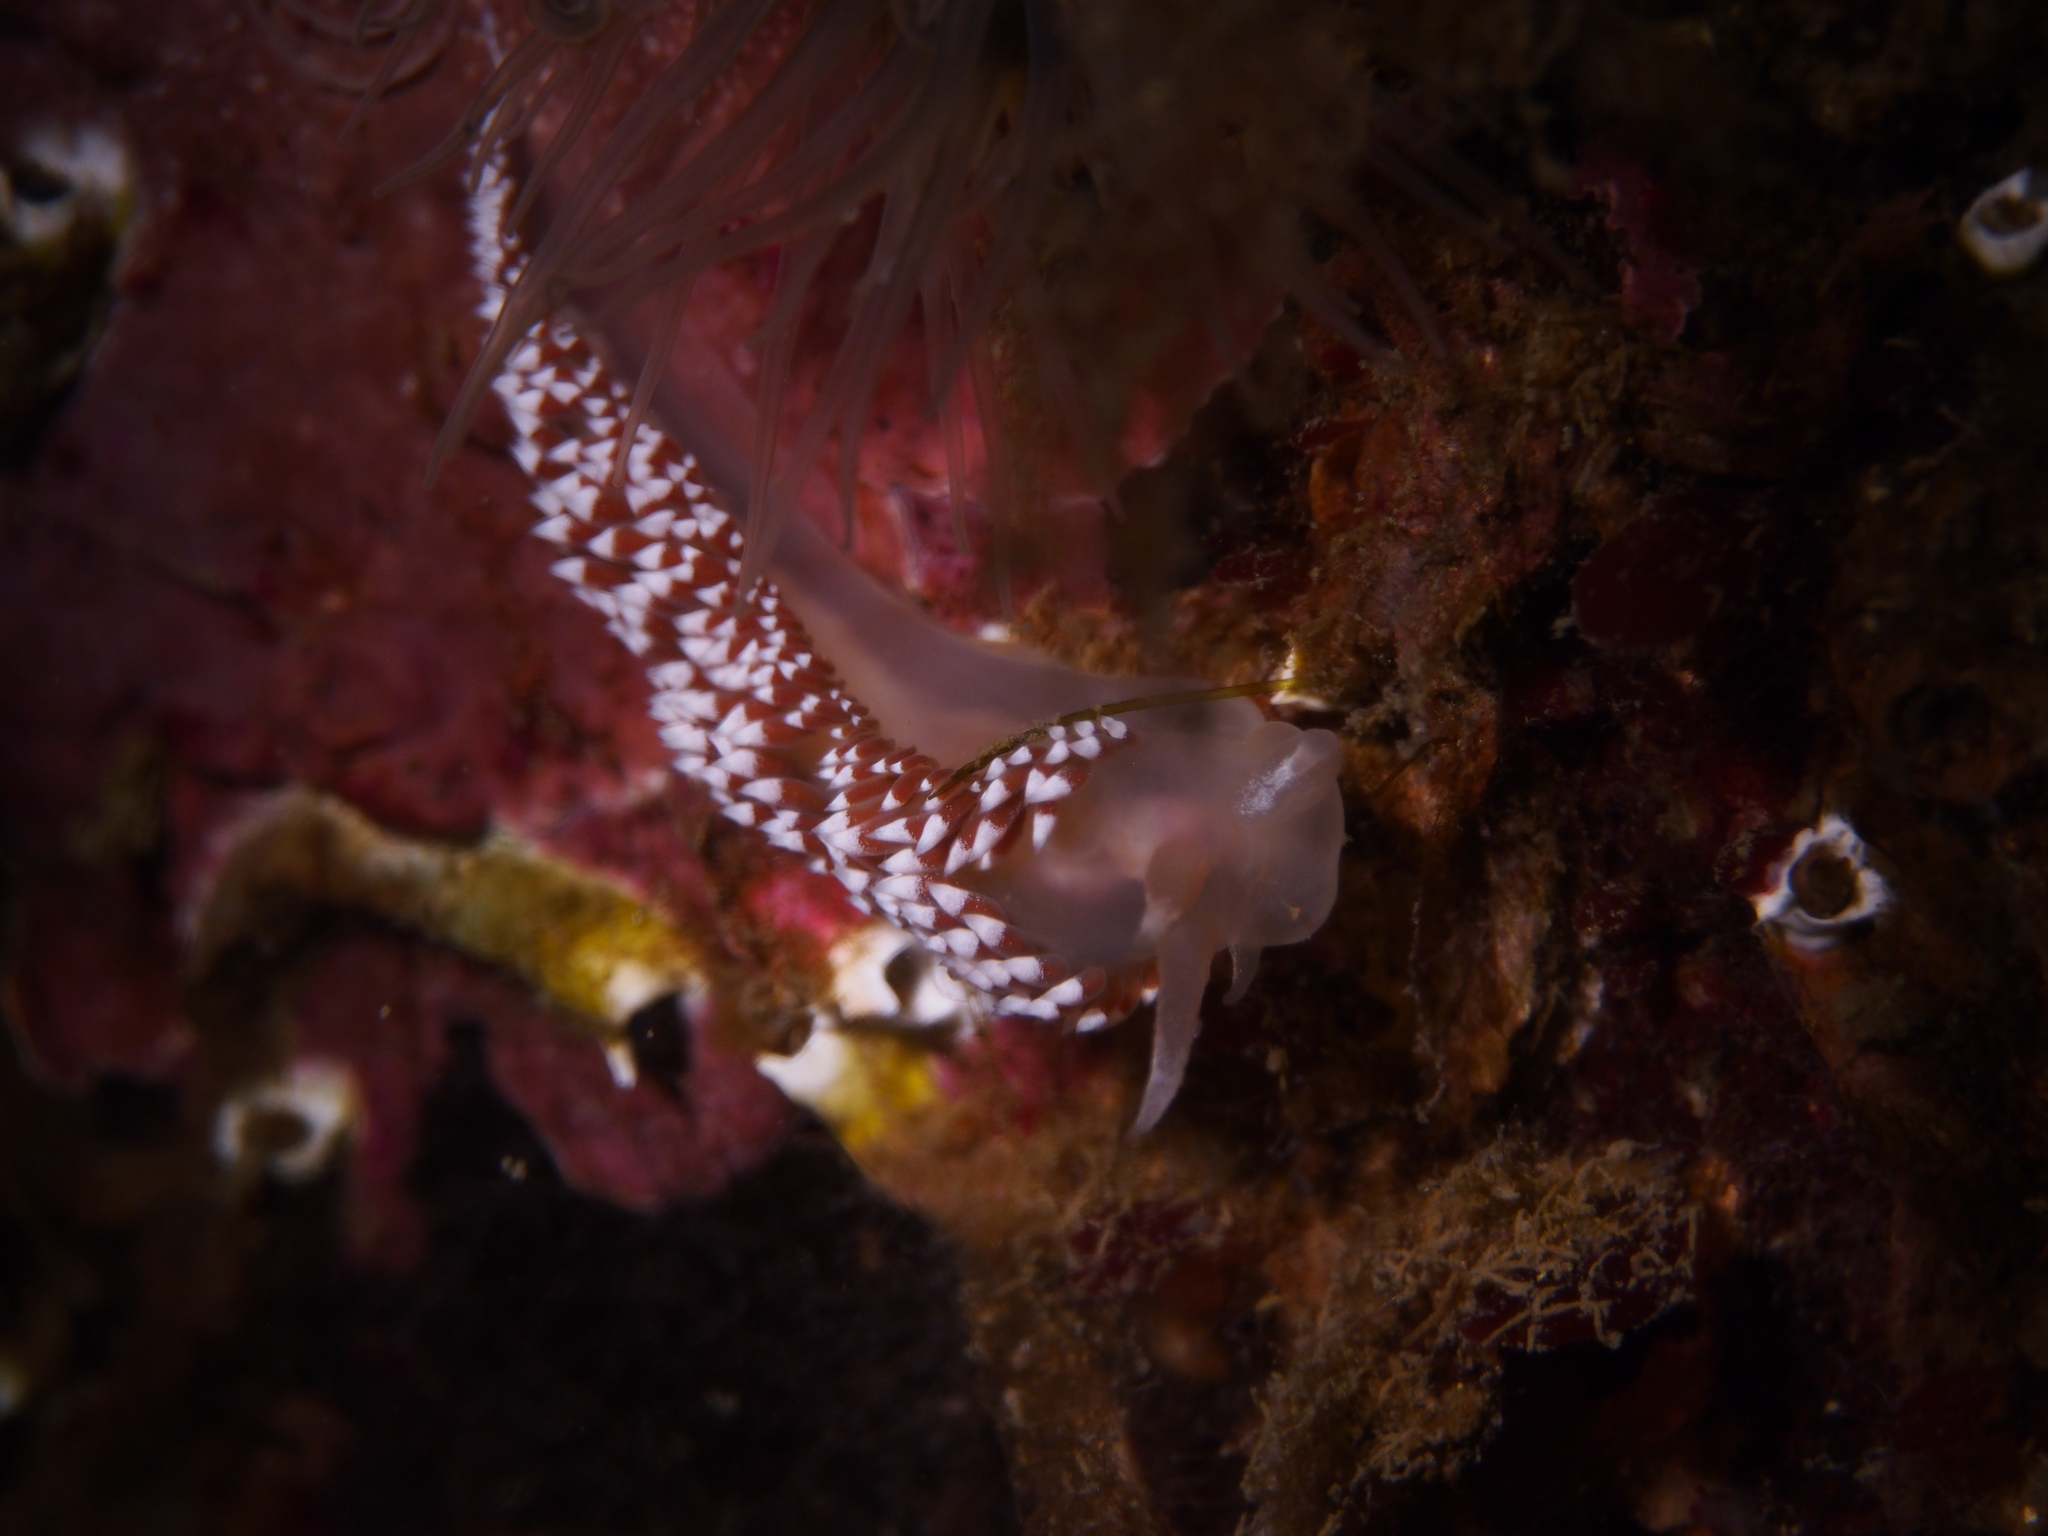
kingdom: Animalia
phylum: Mollusca
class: Gastropoda
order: Nudibranchia
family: Coryphellidae
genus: Coryphella
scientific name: Coryphella verrucosa
